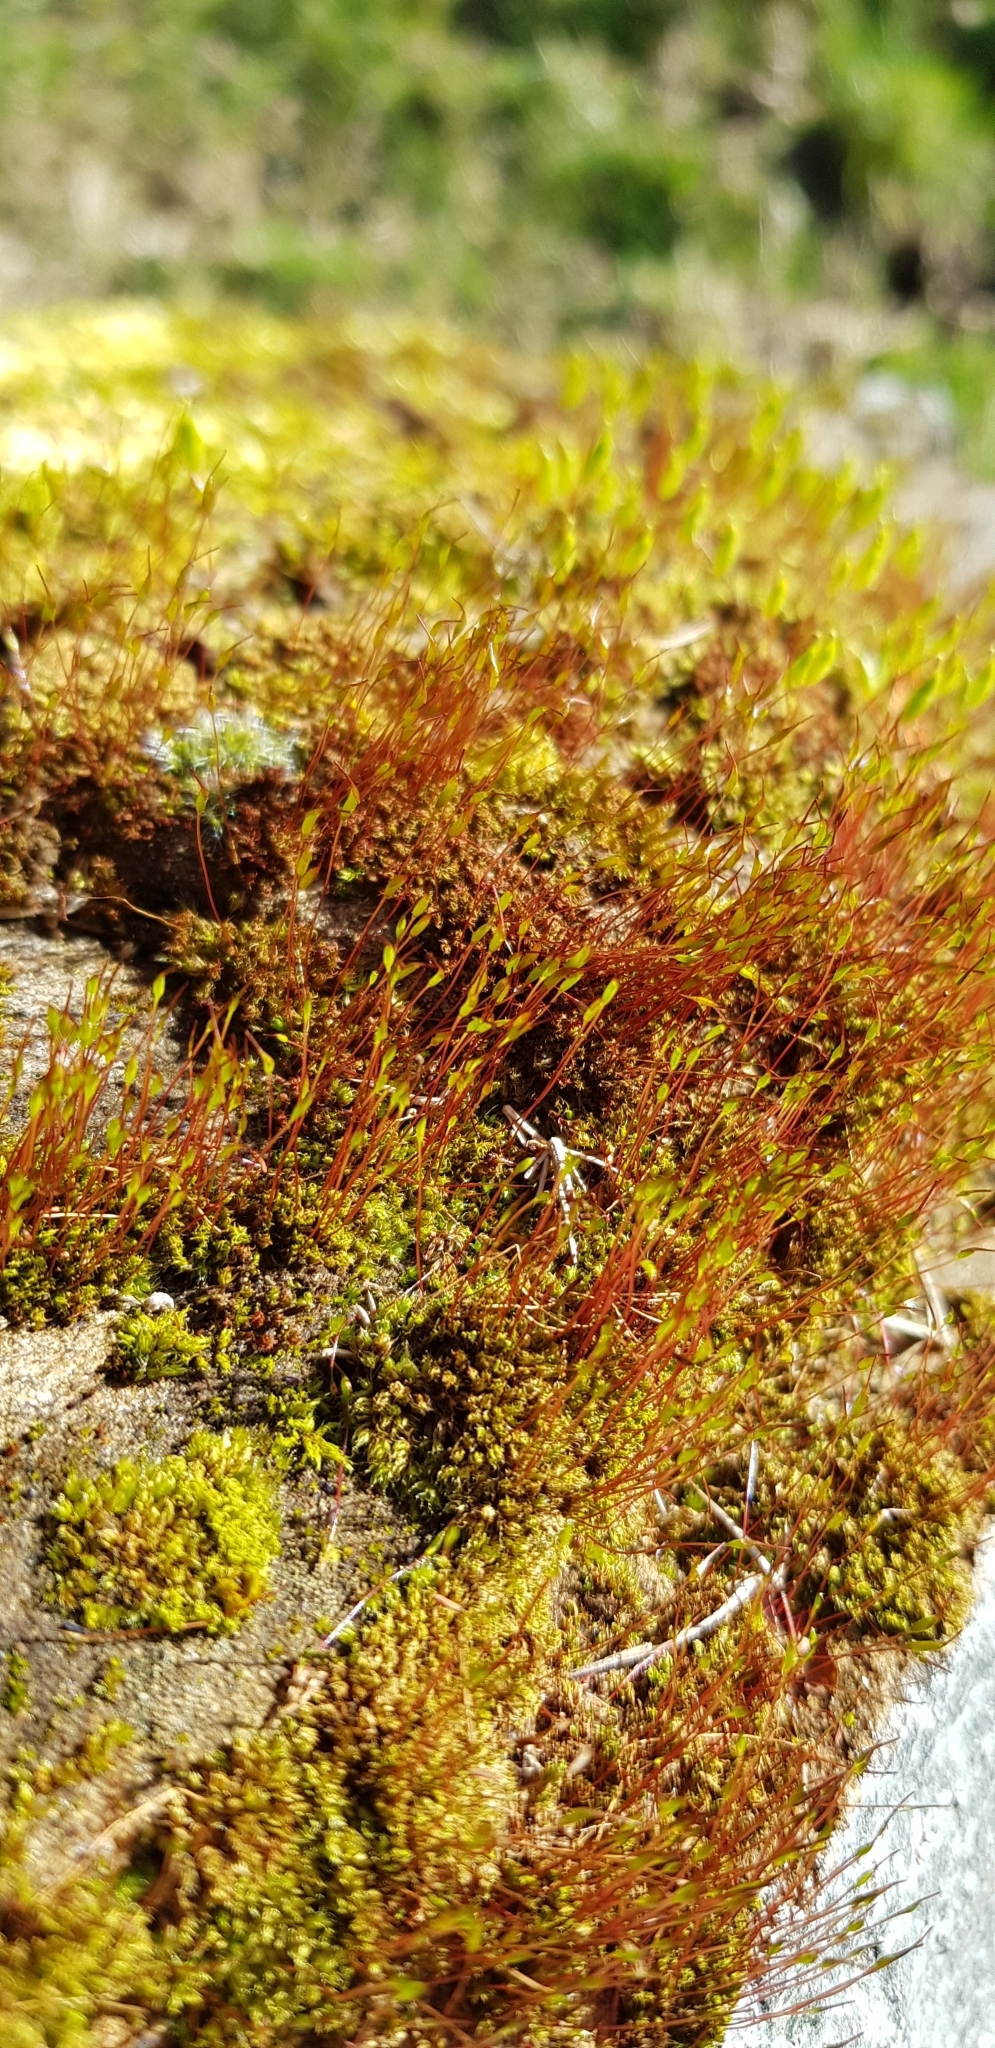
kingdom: Plantae
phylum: Bryophyta
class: Bryopsida
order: Dicranales
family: Ditrichaceae
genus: Ceratodon
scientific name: Ceratodon purpureus
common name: Redshank
